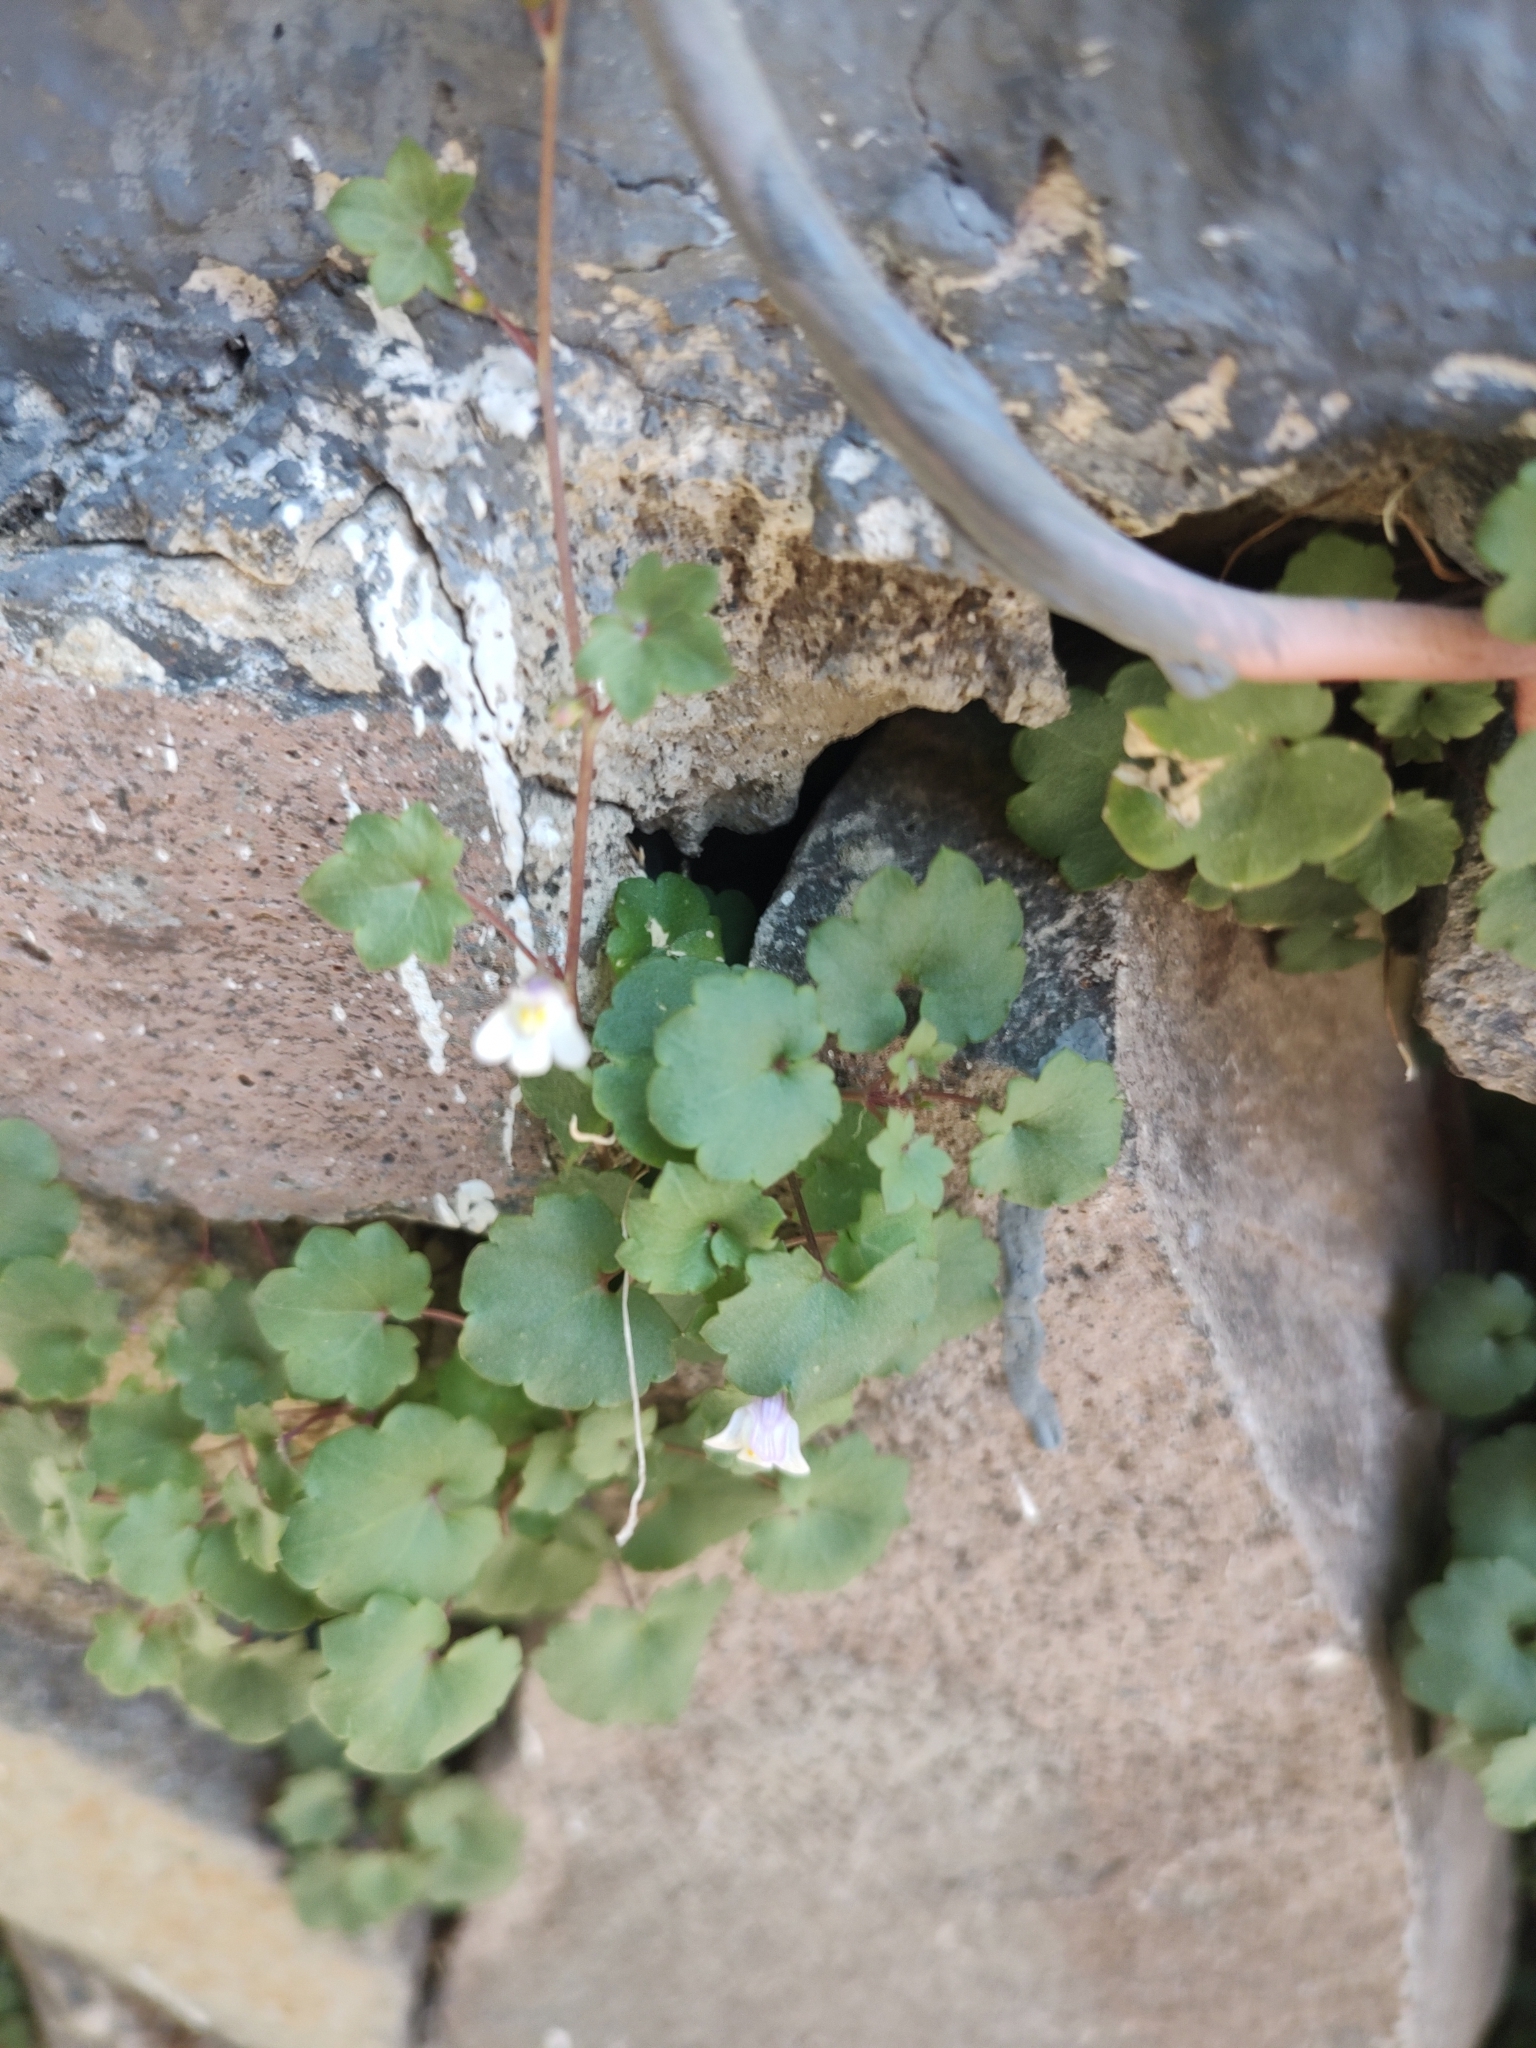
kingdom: Plantae
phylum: Tracheophyta
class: Magnoliopsida
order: Lamiales
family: Plantaginaceae
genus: Cymbalaria
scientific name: Cymbalaria muralis
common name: Ivy-leaved toadflax
